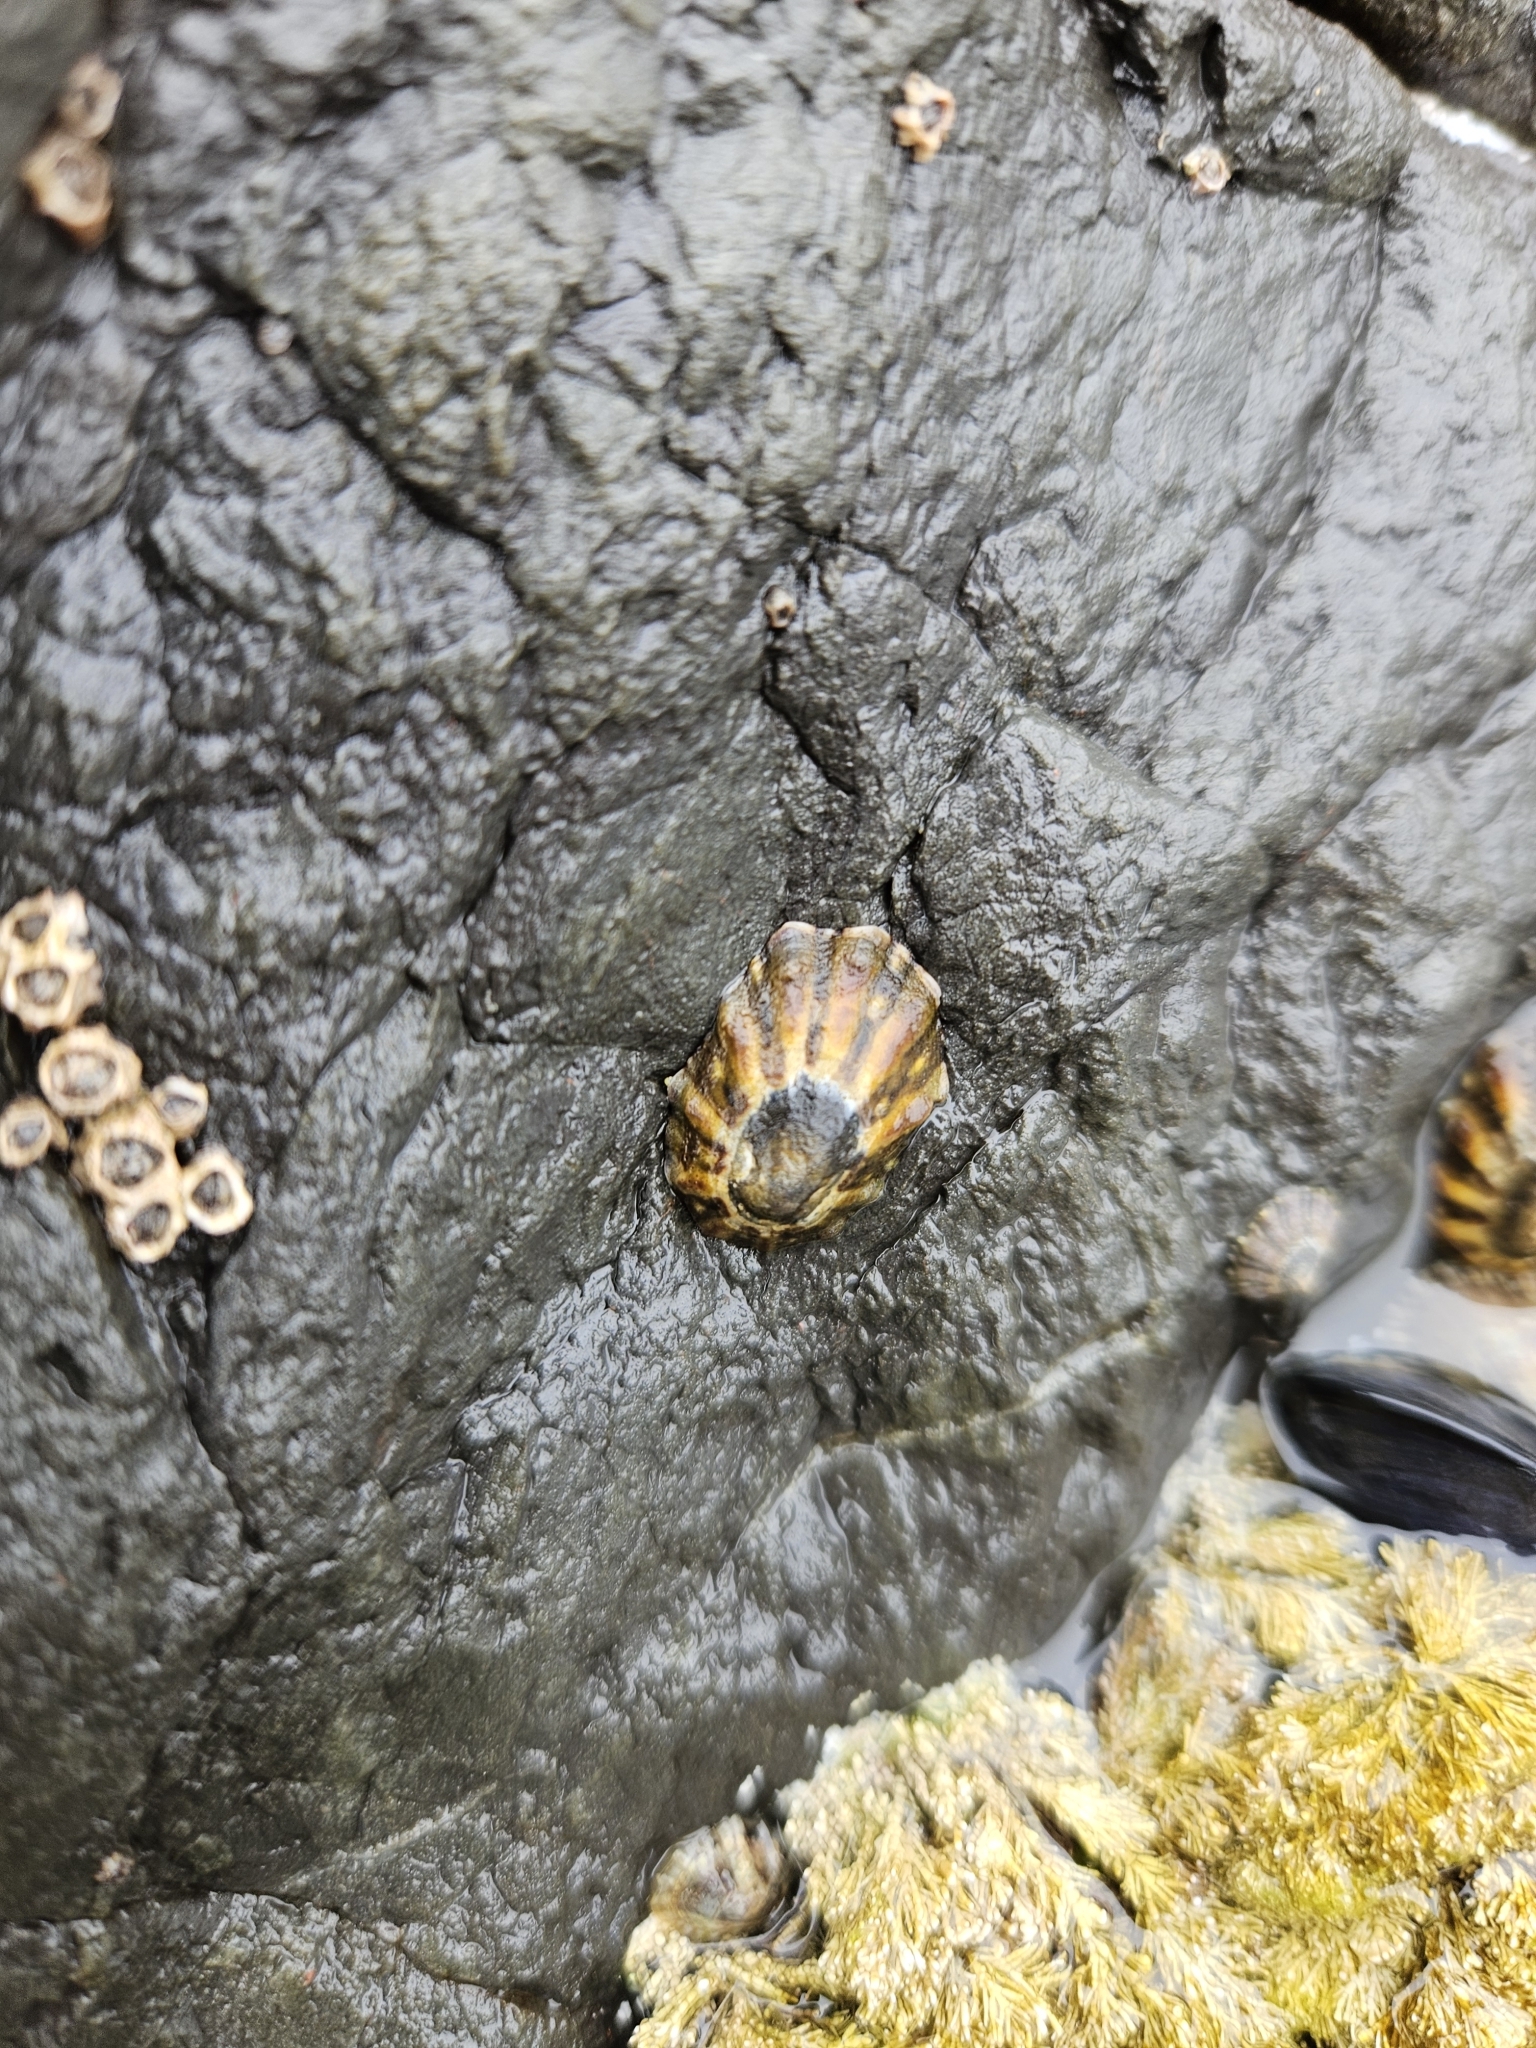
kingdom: Animalia
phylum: Mollusca
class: Gastropoda
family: Nacellidae
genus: Cellana
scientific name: Cellana ornata
